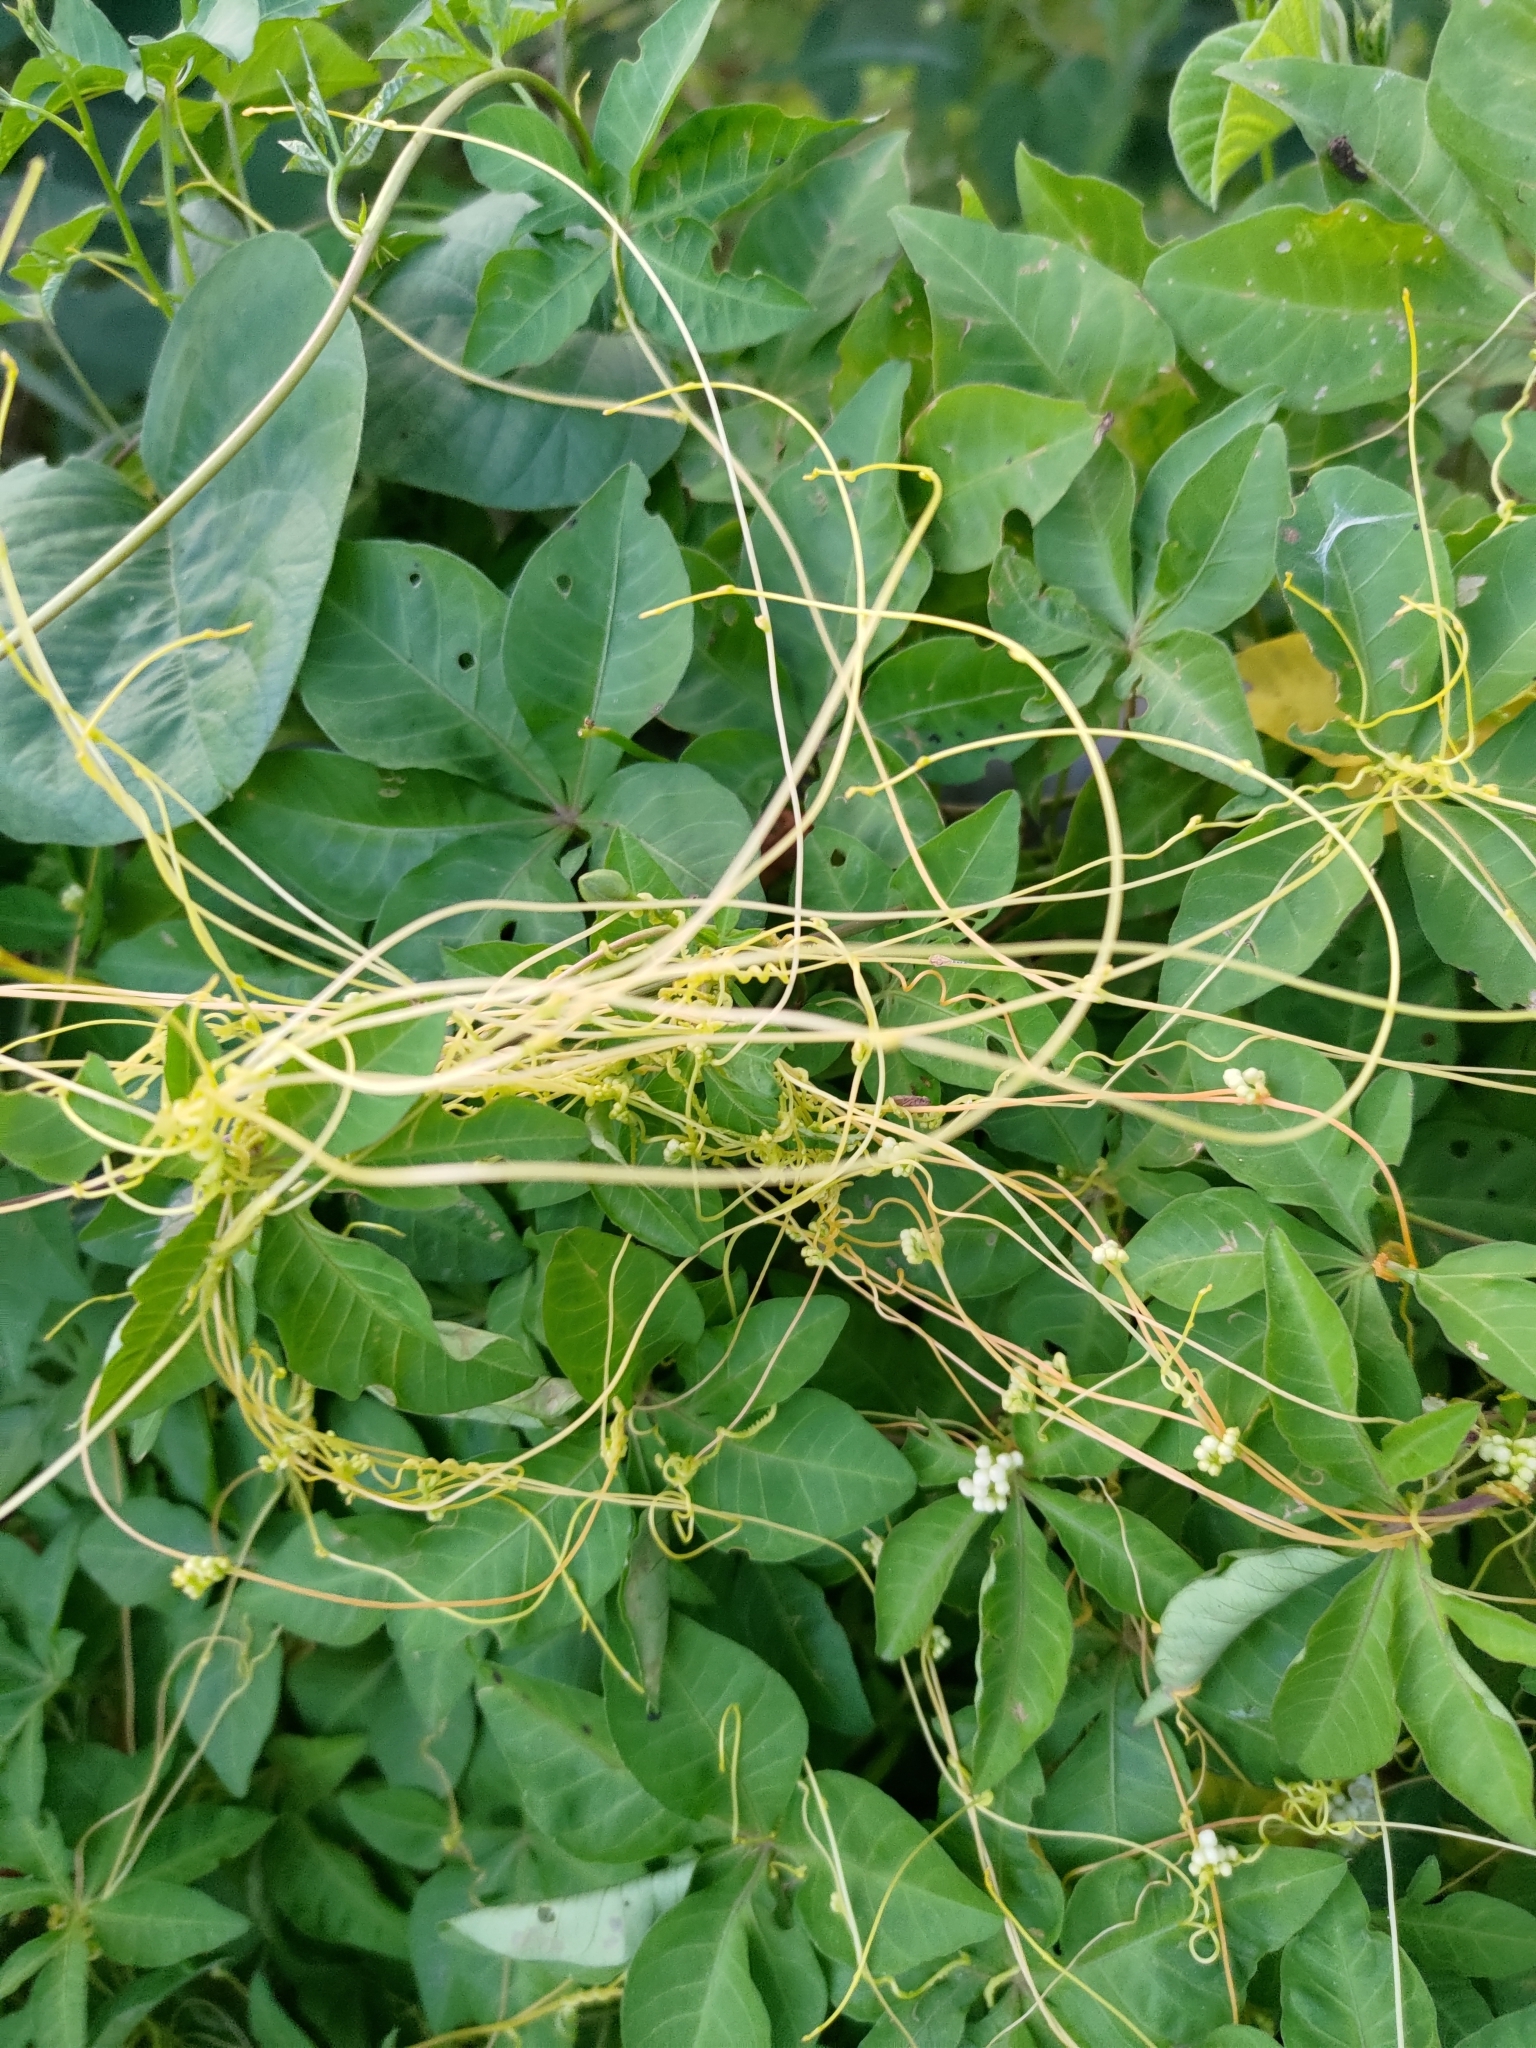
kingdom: Plantae
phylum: Tracheophyta
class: Magnoliopsida
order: Solanales
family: Convolvulaceae
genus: Cuscuta
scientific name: Cuscuta campestris
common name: Yellow dodder
